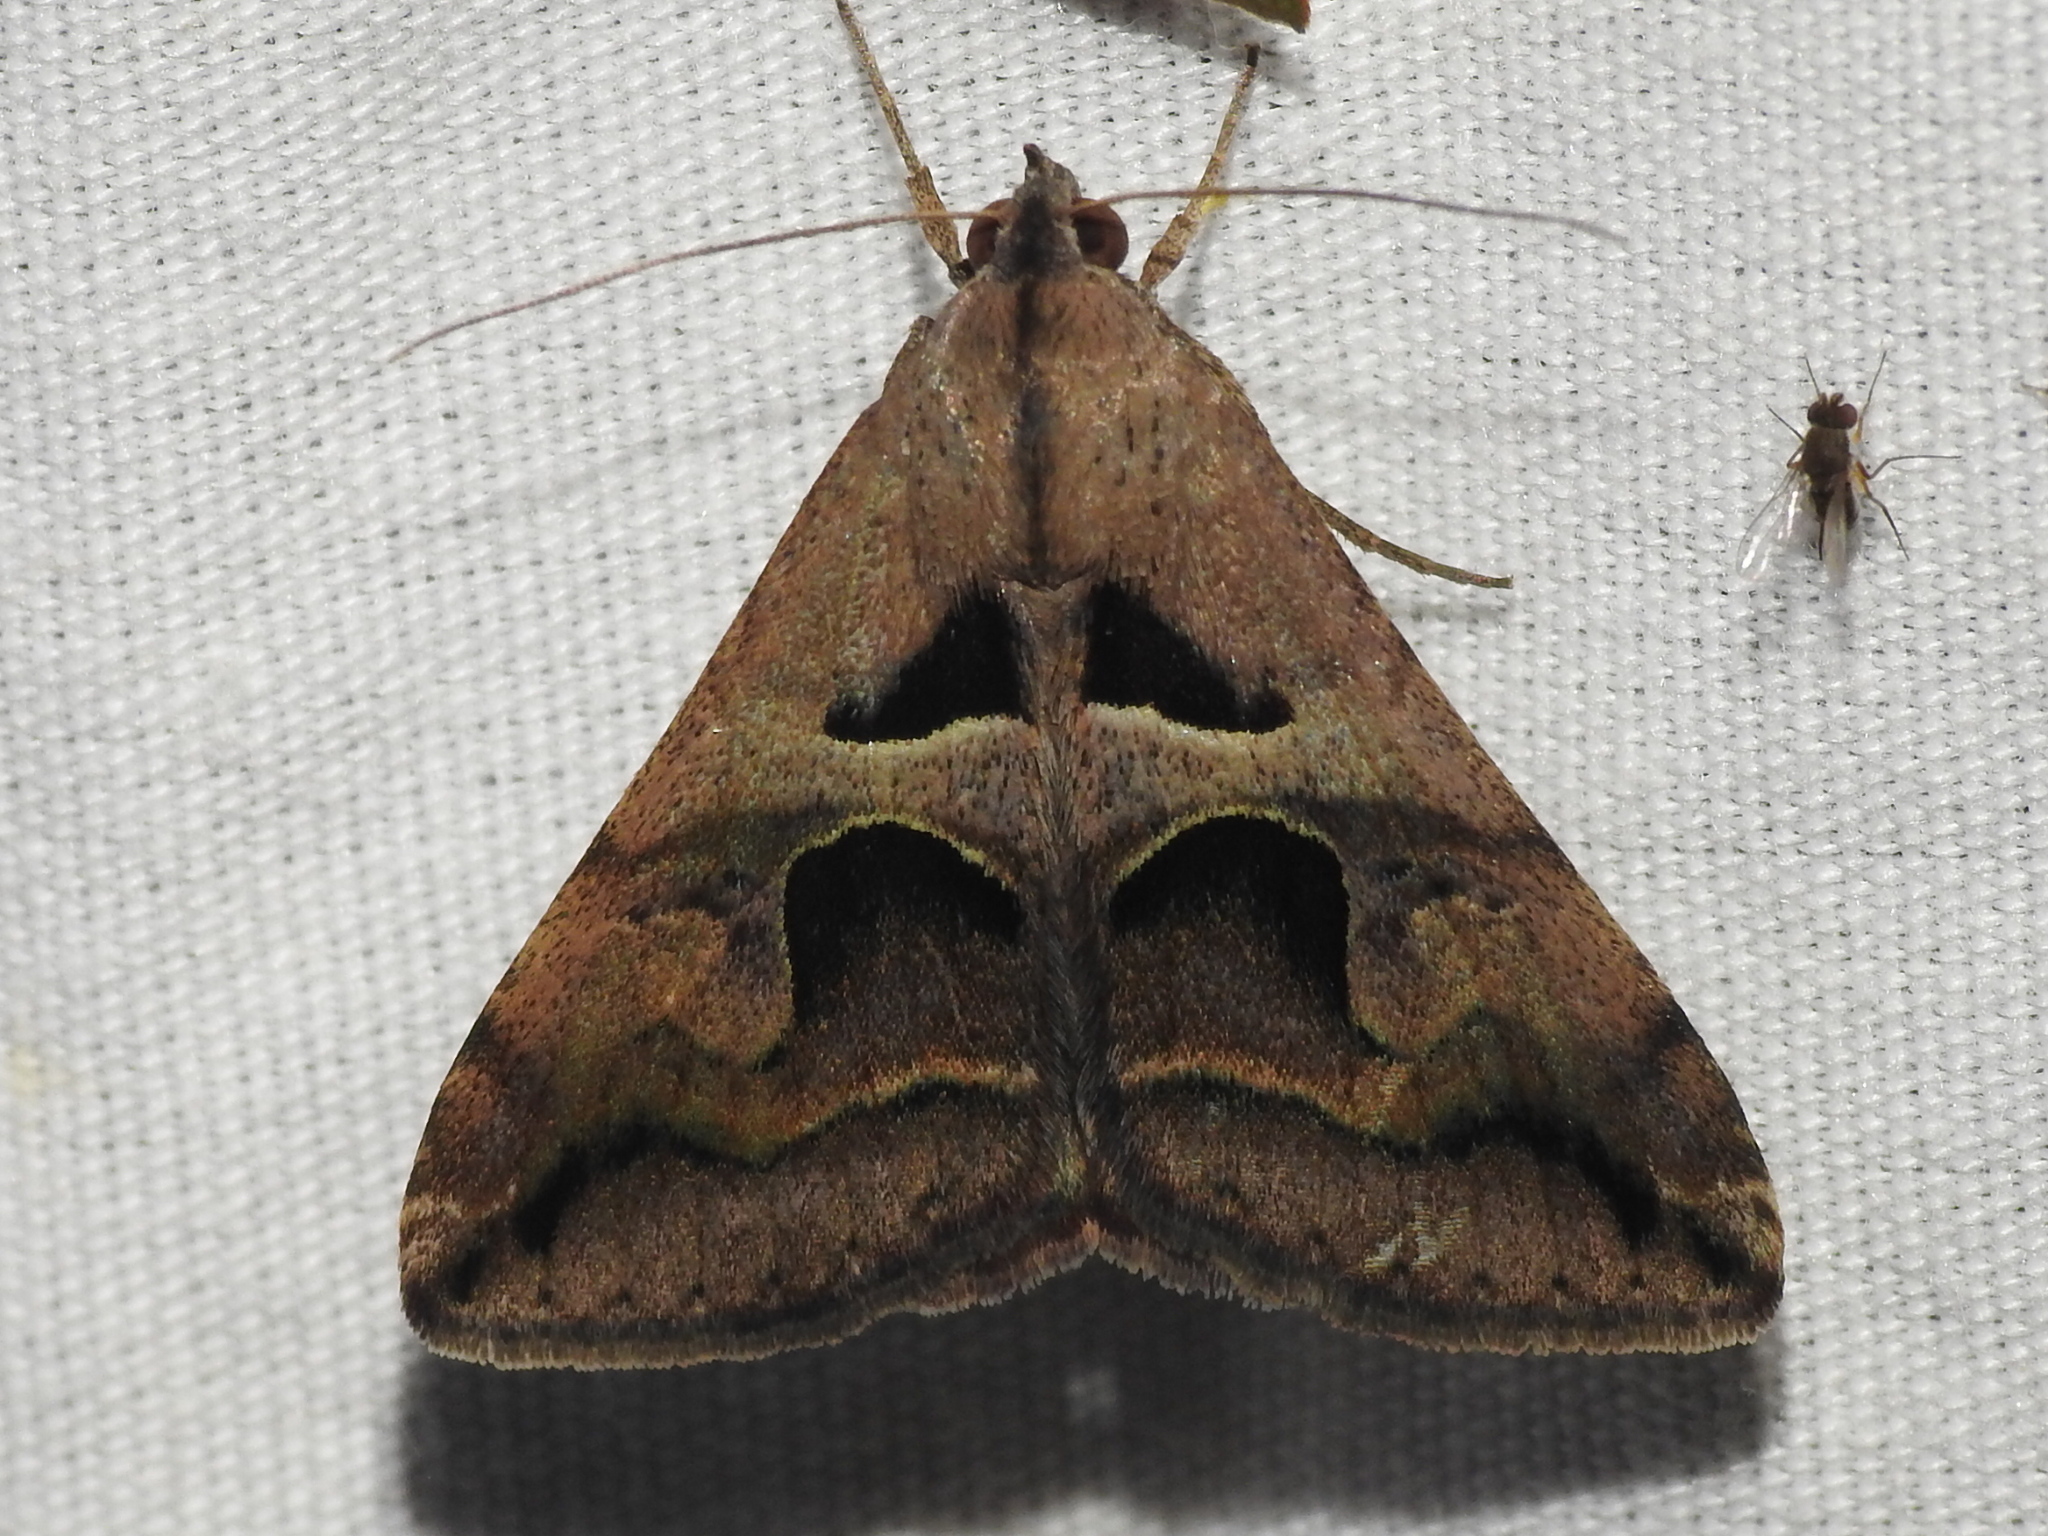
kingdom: Animalia
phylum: Arthropoda
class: Insecta
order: Lepidoptera
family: Erebidae
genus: Melipotis
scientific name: Melipotis cellaris
